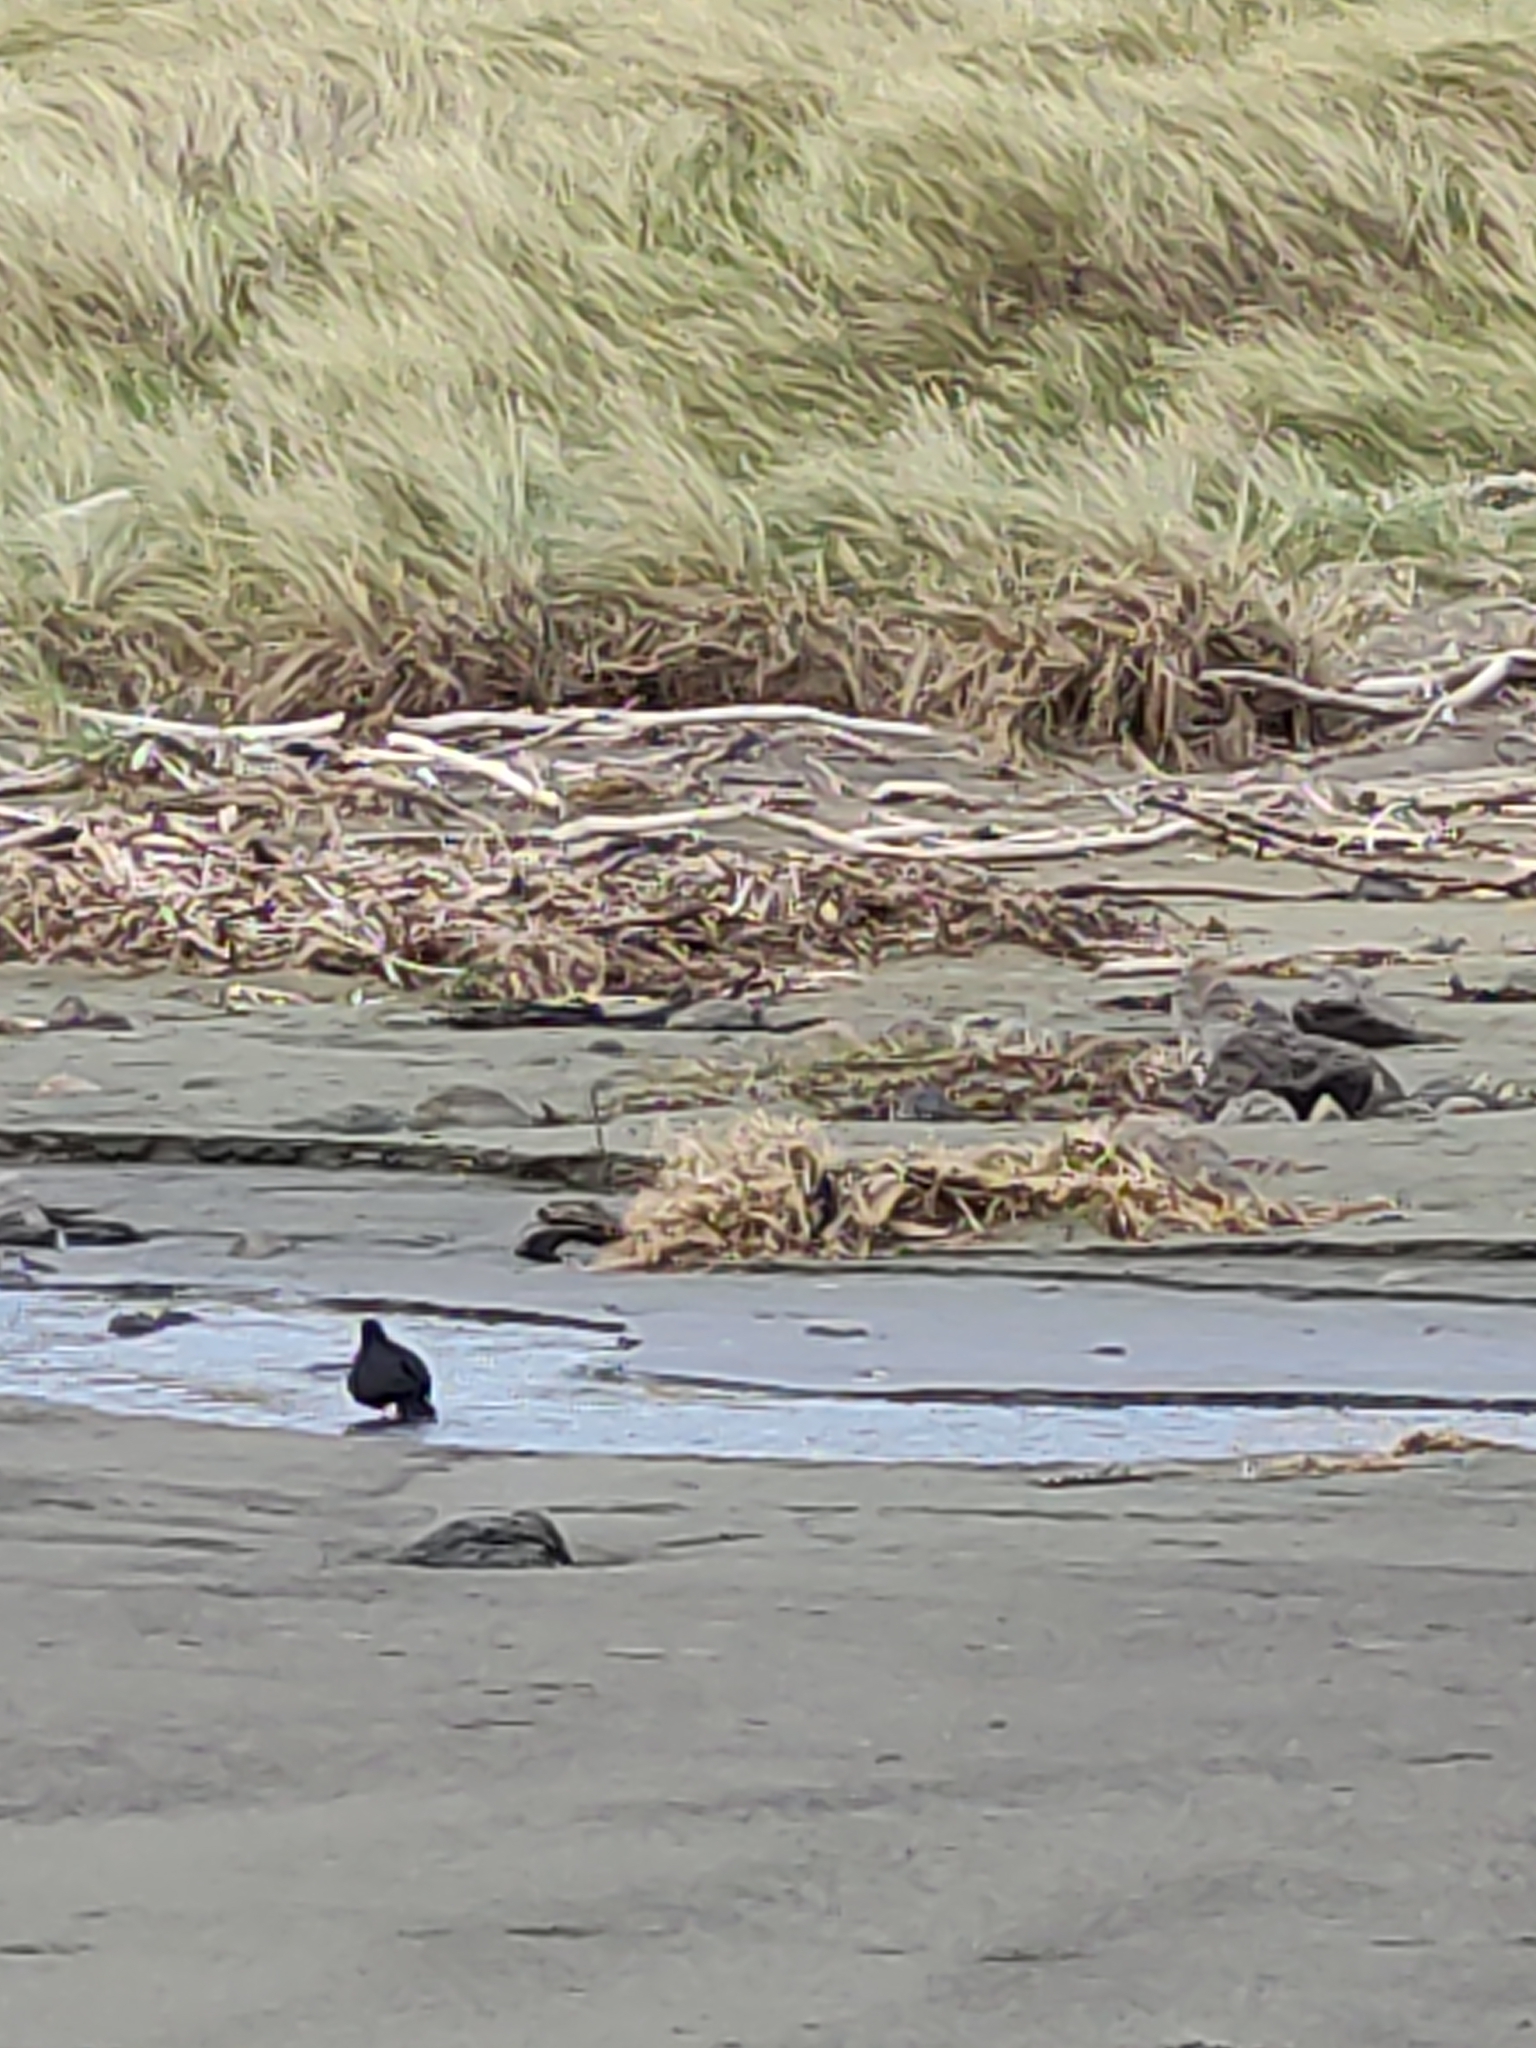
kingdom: Animalia
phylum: Chordata
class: Aves
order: Charadriiformes
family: Haematopodidae
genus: Haematopus
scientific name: Haematopus unicolor
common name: Variable oystercatcher
